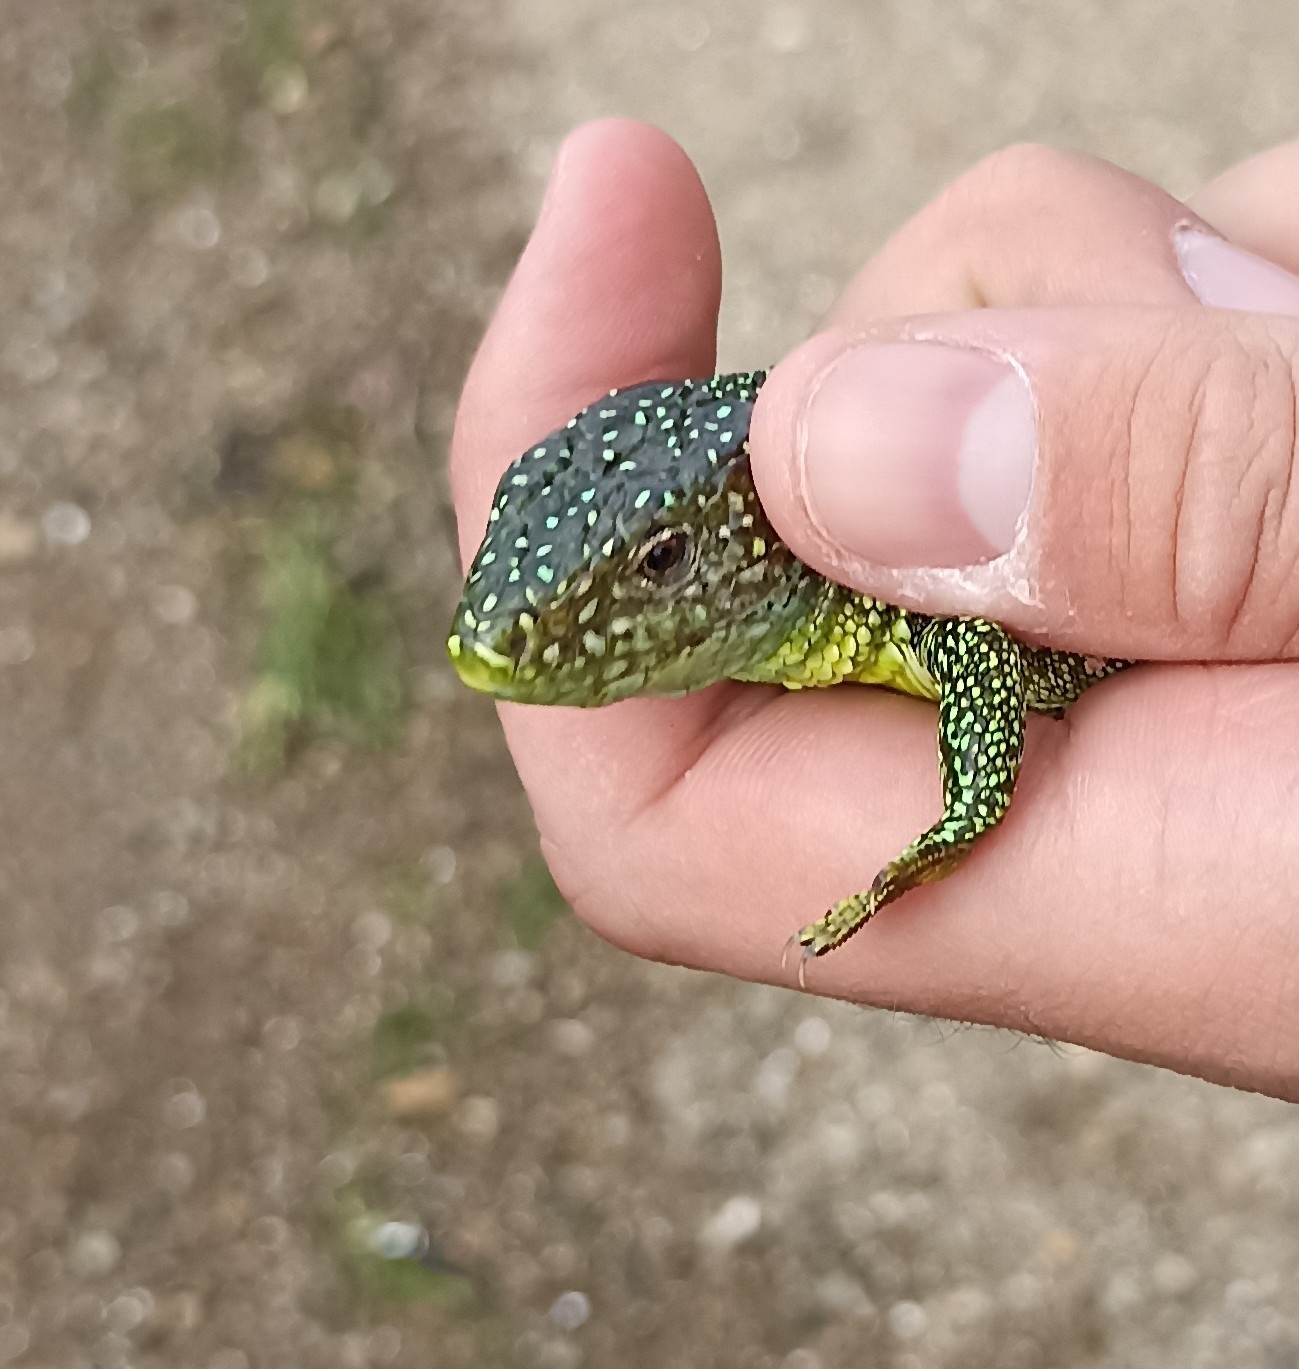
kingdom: Animalia
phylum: Chordata
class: Squamata
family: Lacertidae
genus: Lacerta
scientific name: Lacerta bilineata
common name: Western green lizard
